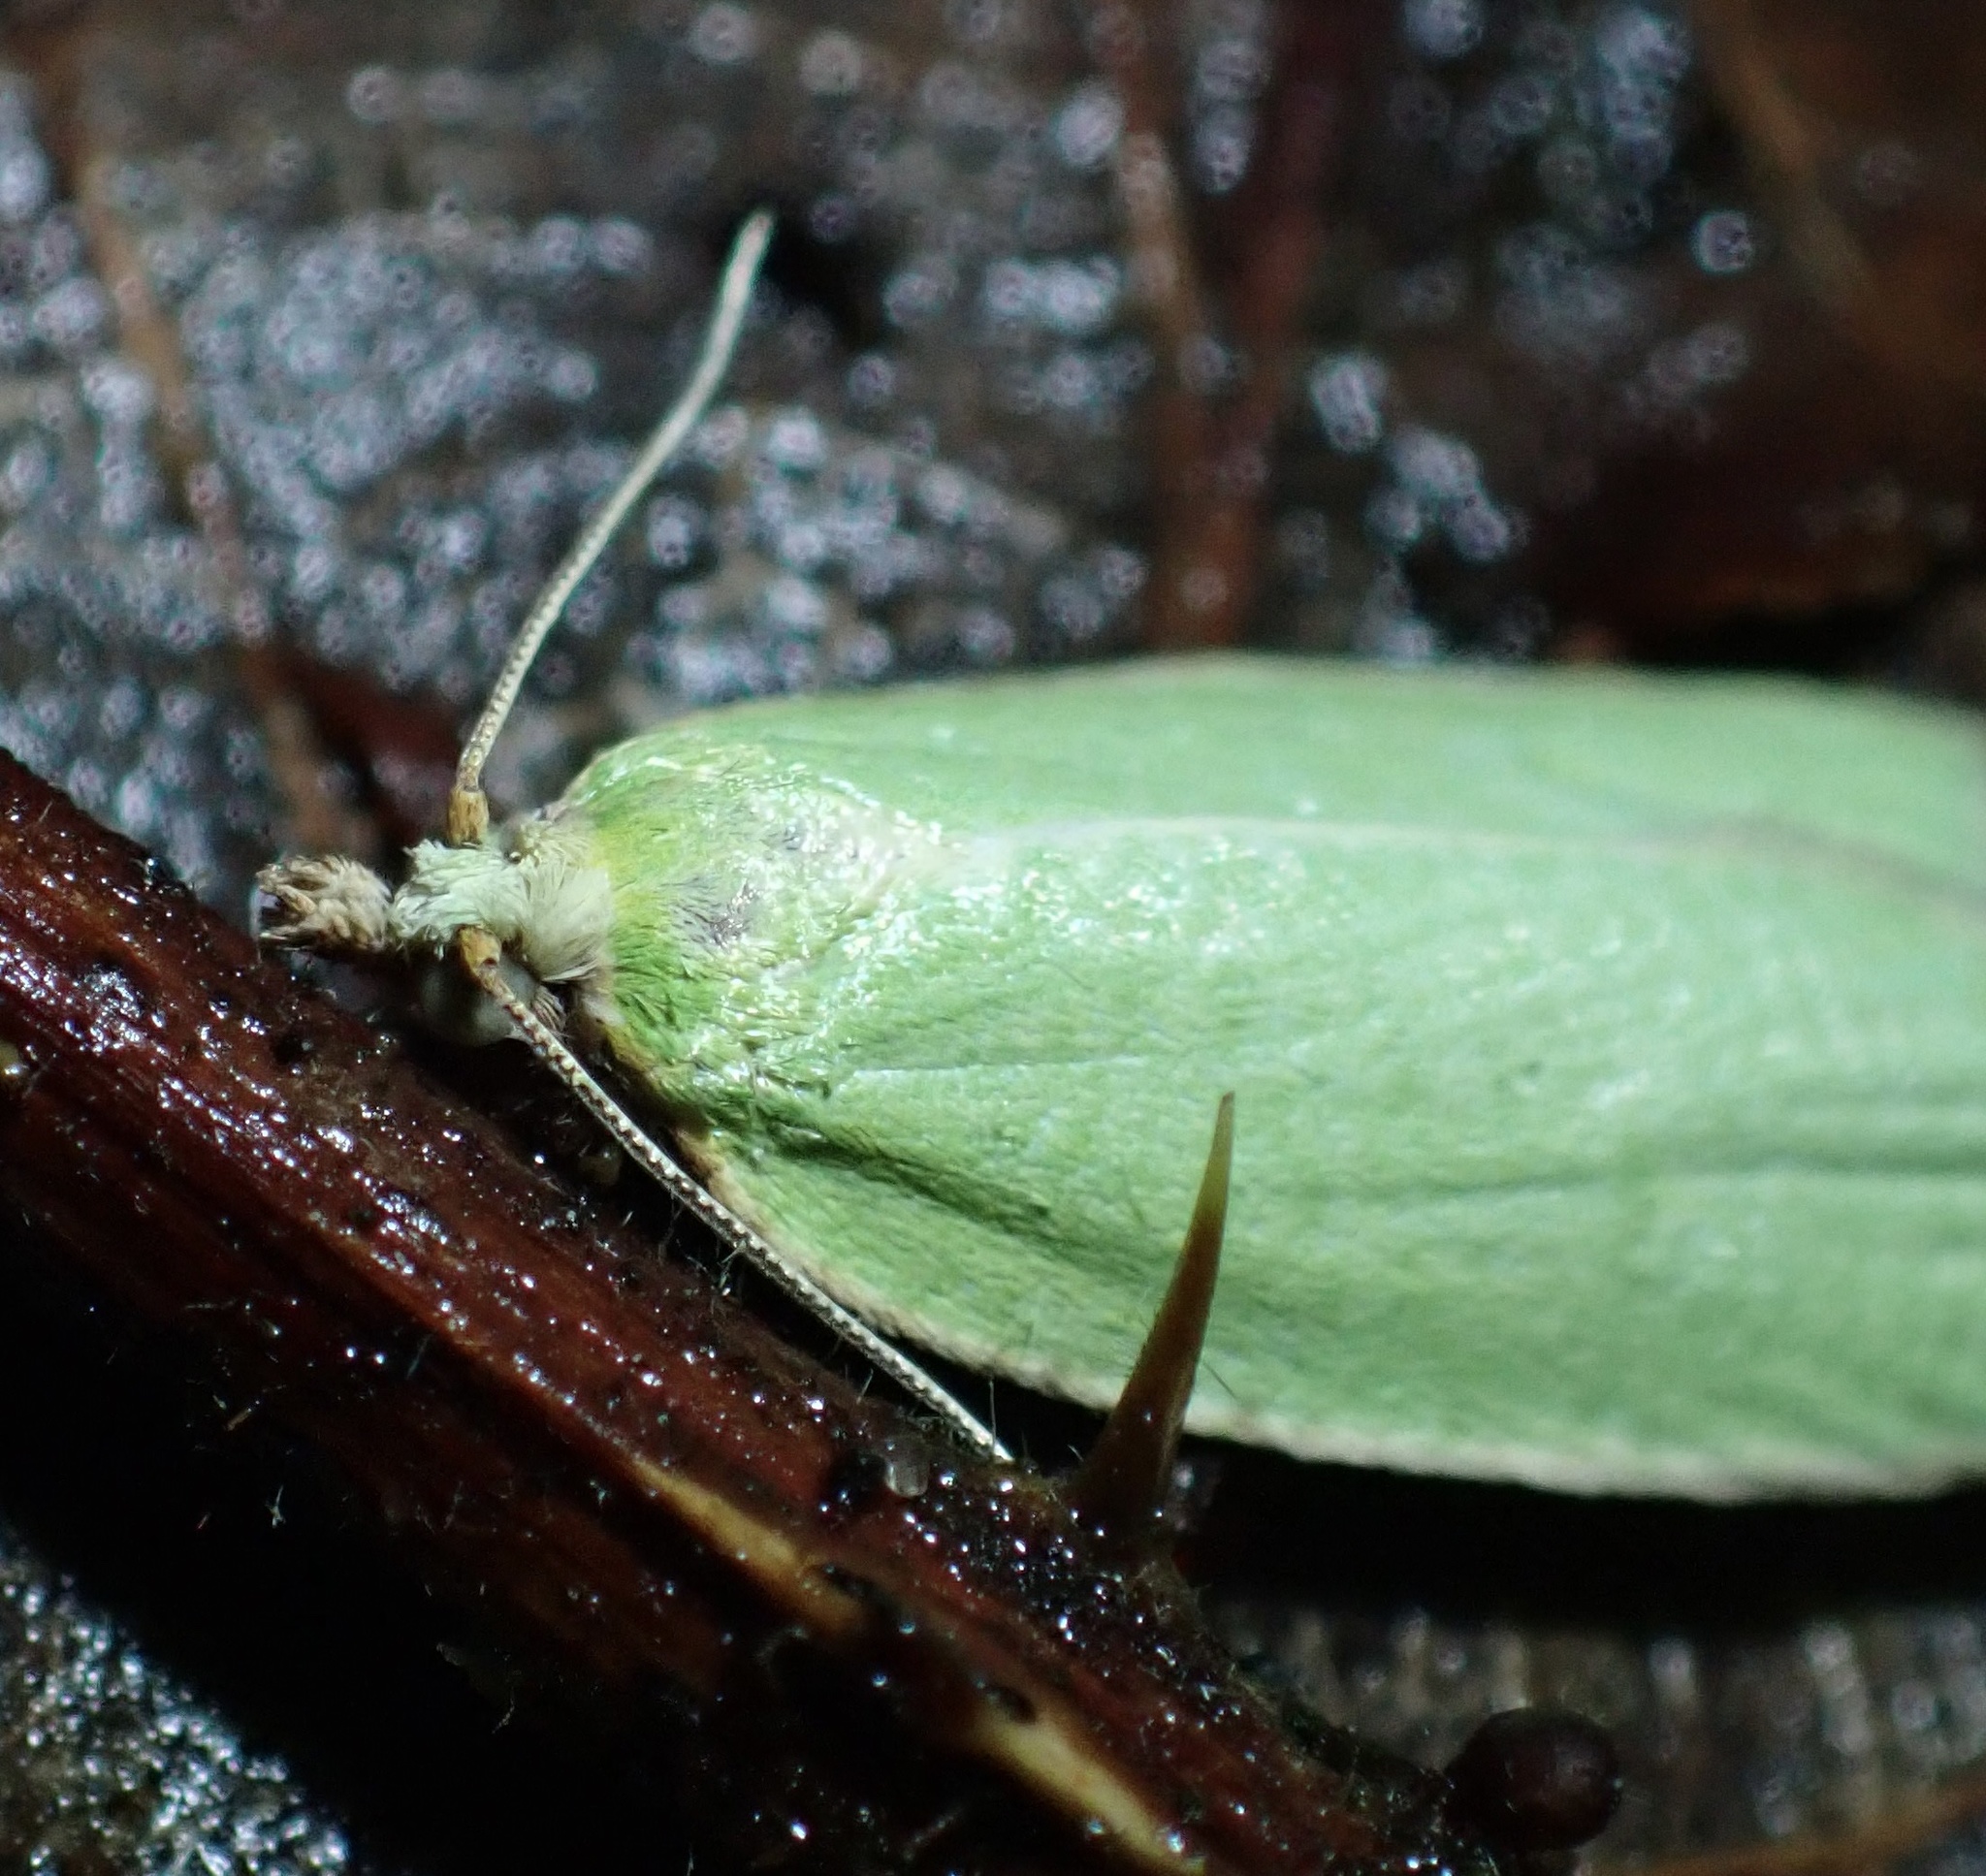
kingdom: Animalia
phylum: Arthropoda
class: Insecta
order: Lepidoptera
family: Tortricidae
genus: Tortrix
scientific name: Tortrix viridana
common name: Green oak tortrix
